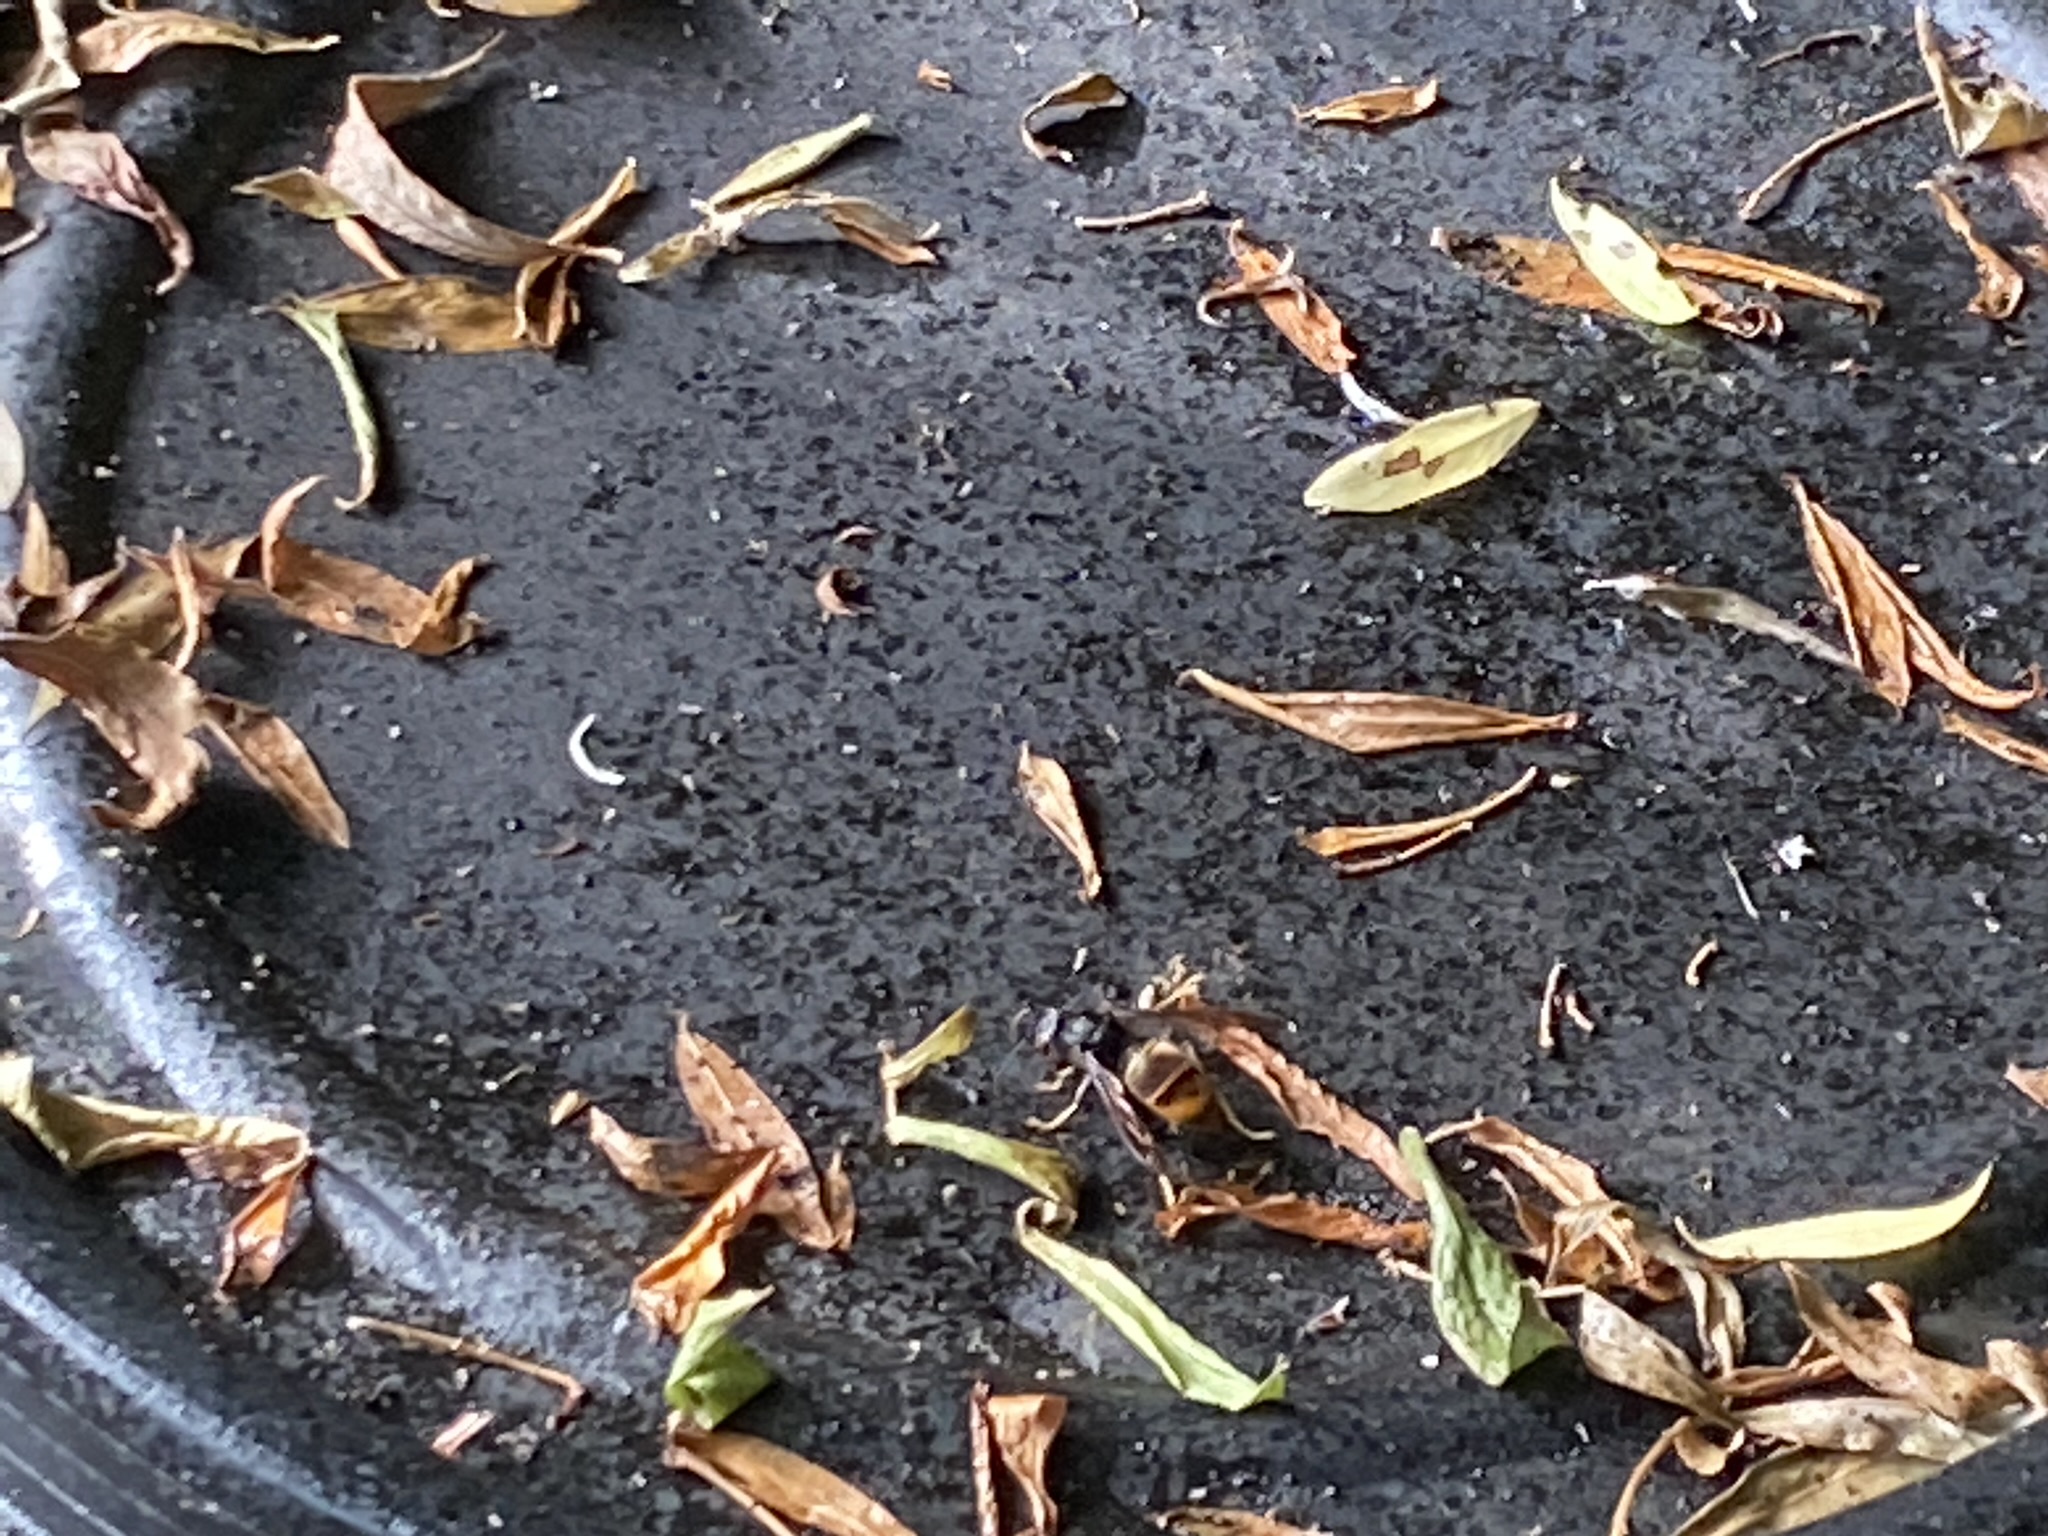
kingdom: Animalia
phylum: Arthropoda
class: Insecta
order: Hymenoptera
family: Vespidae
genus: Vespa
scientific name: Vespa velutina
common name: Asian hornet
